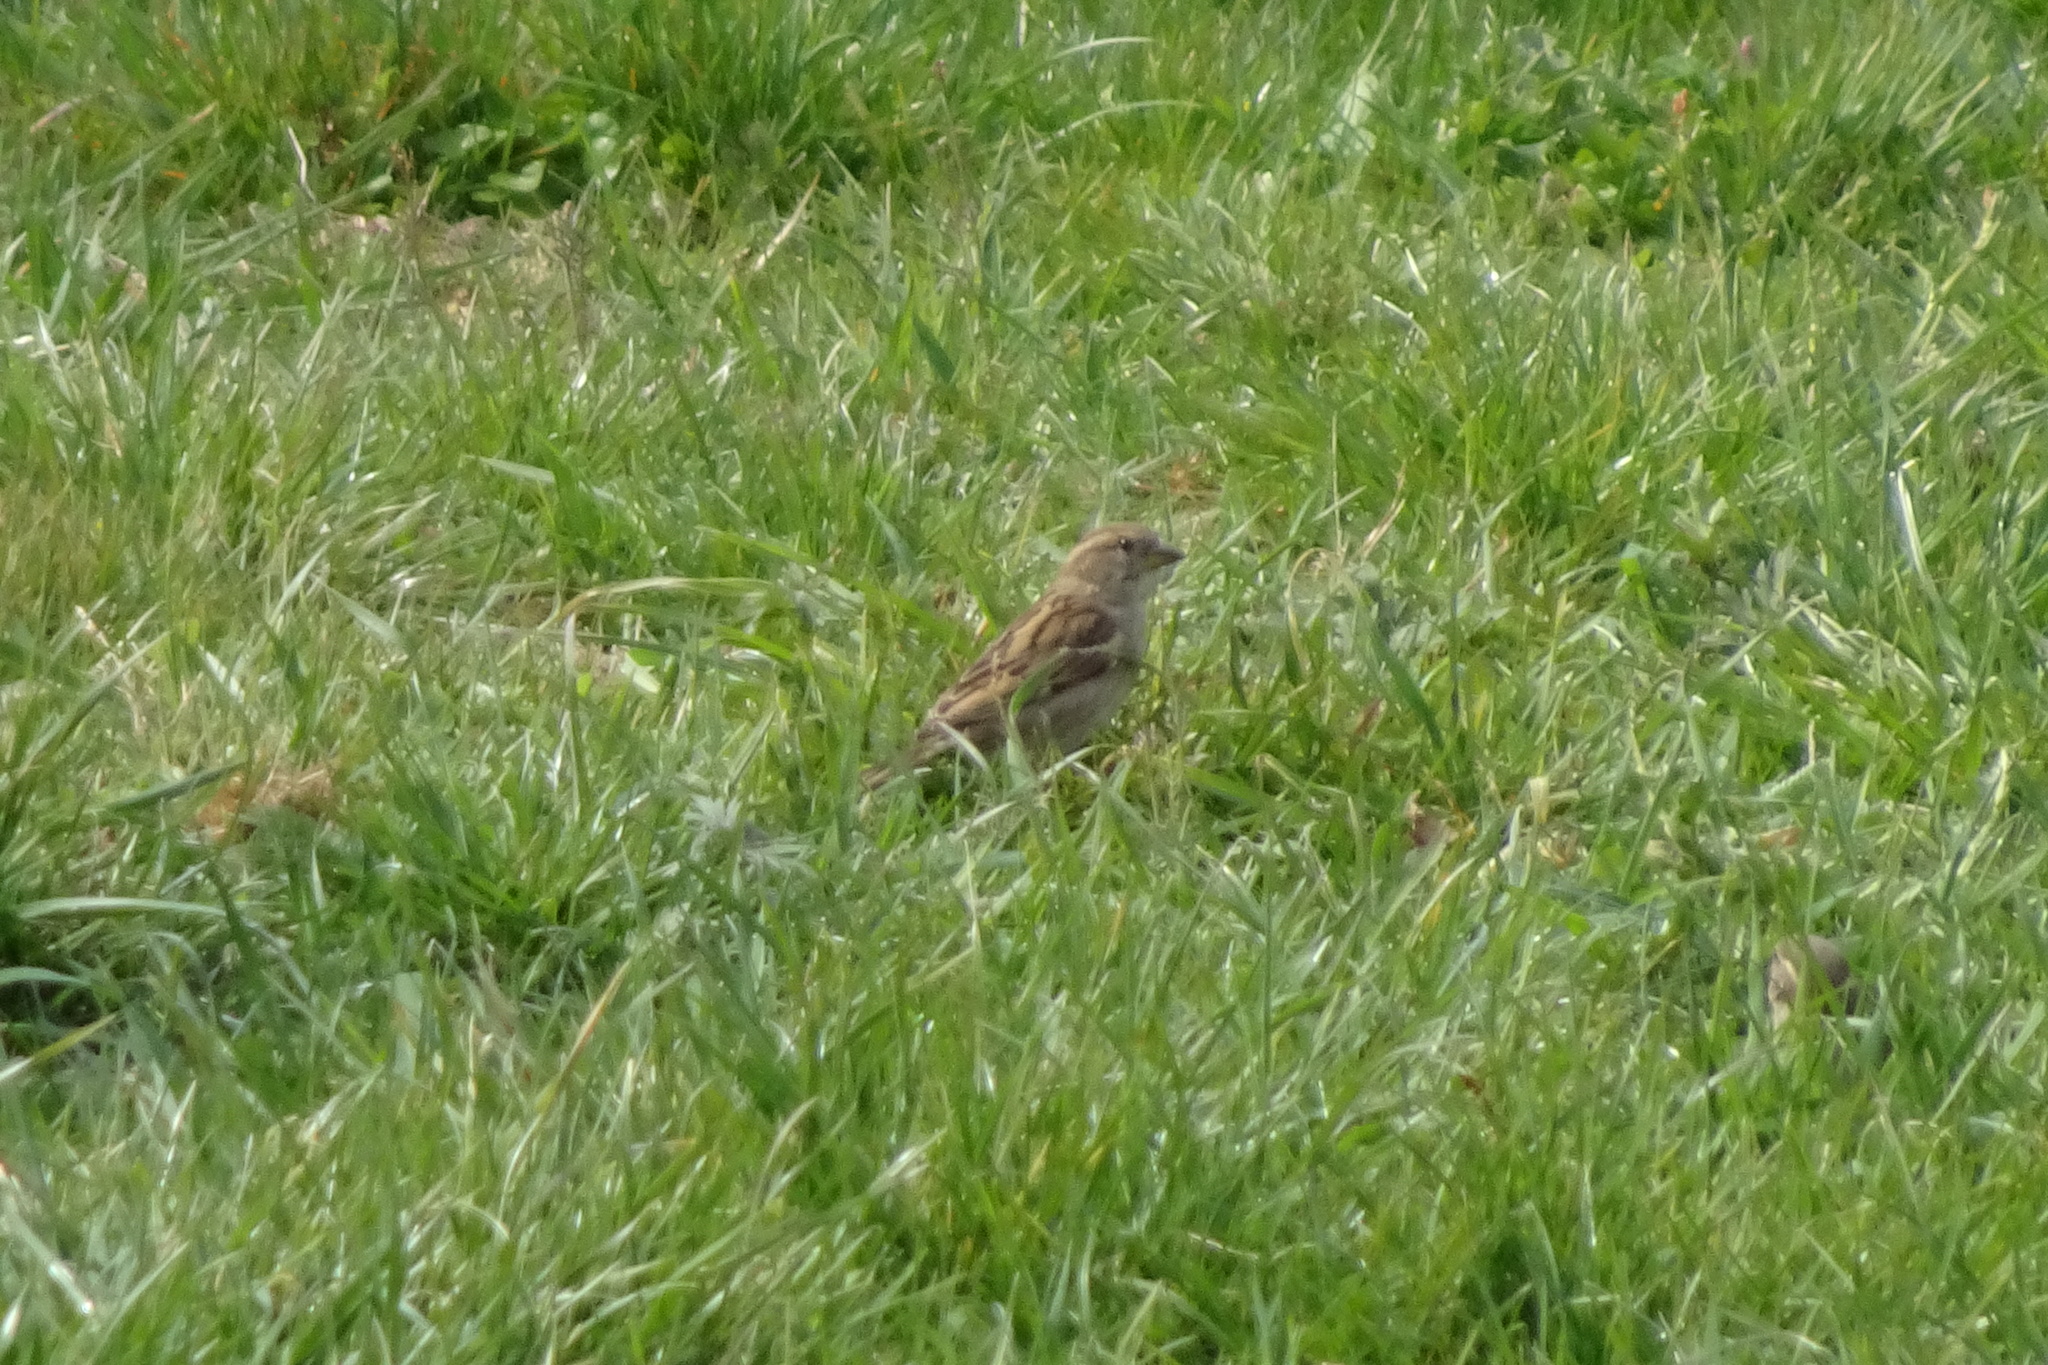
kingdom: Animalia
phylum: Chordata
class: Aves
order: Passeriformes
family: Passeridae
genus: Passer
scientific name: Passer domesticus
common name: House sparrow
